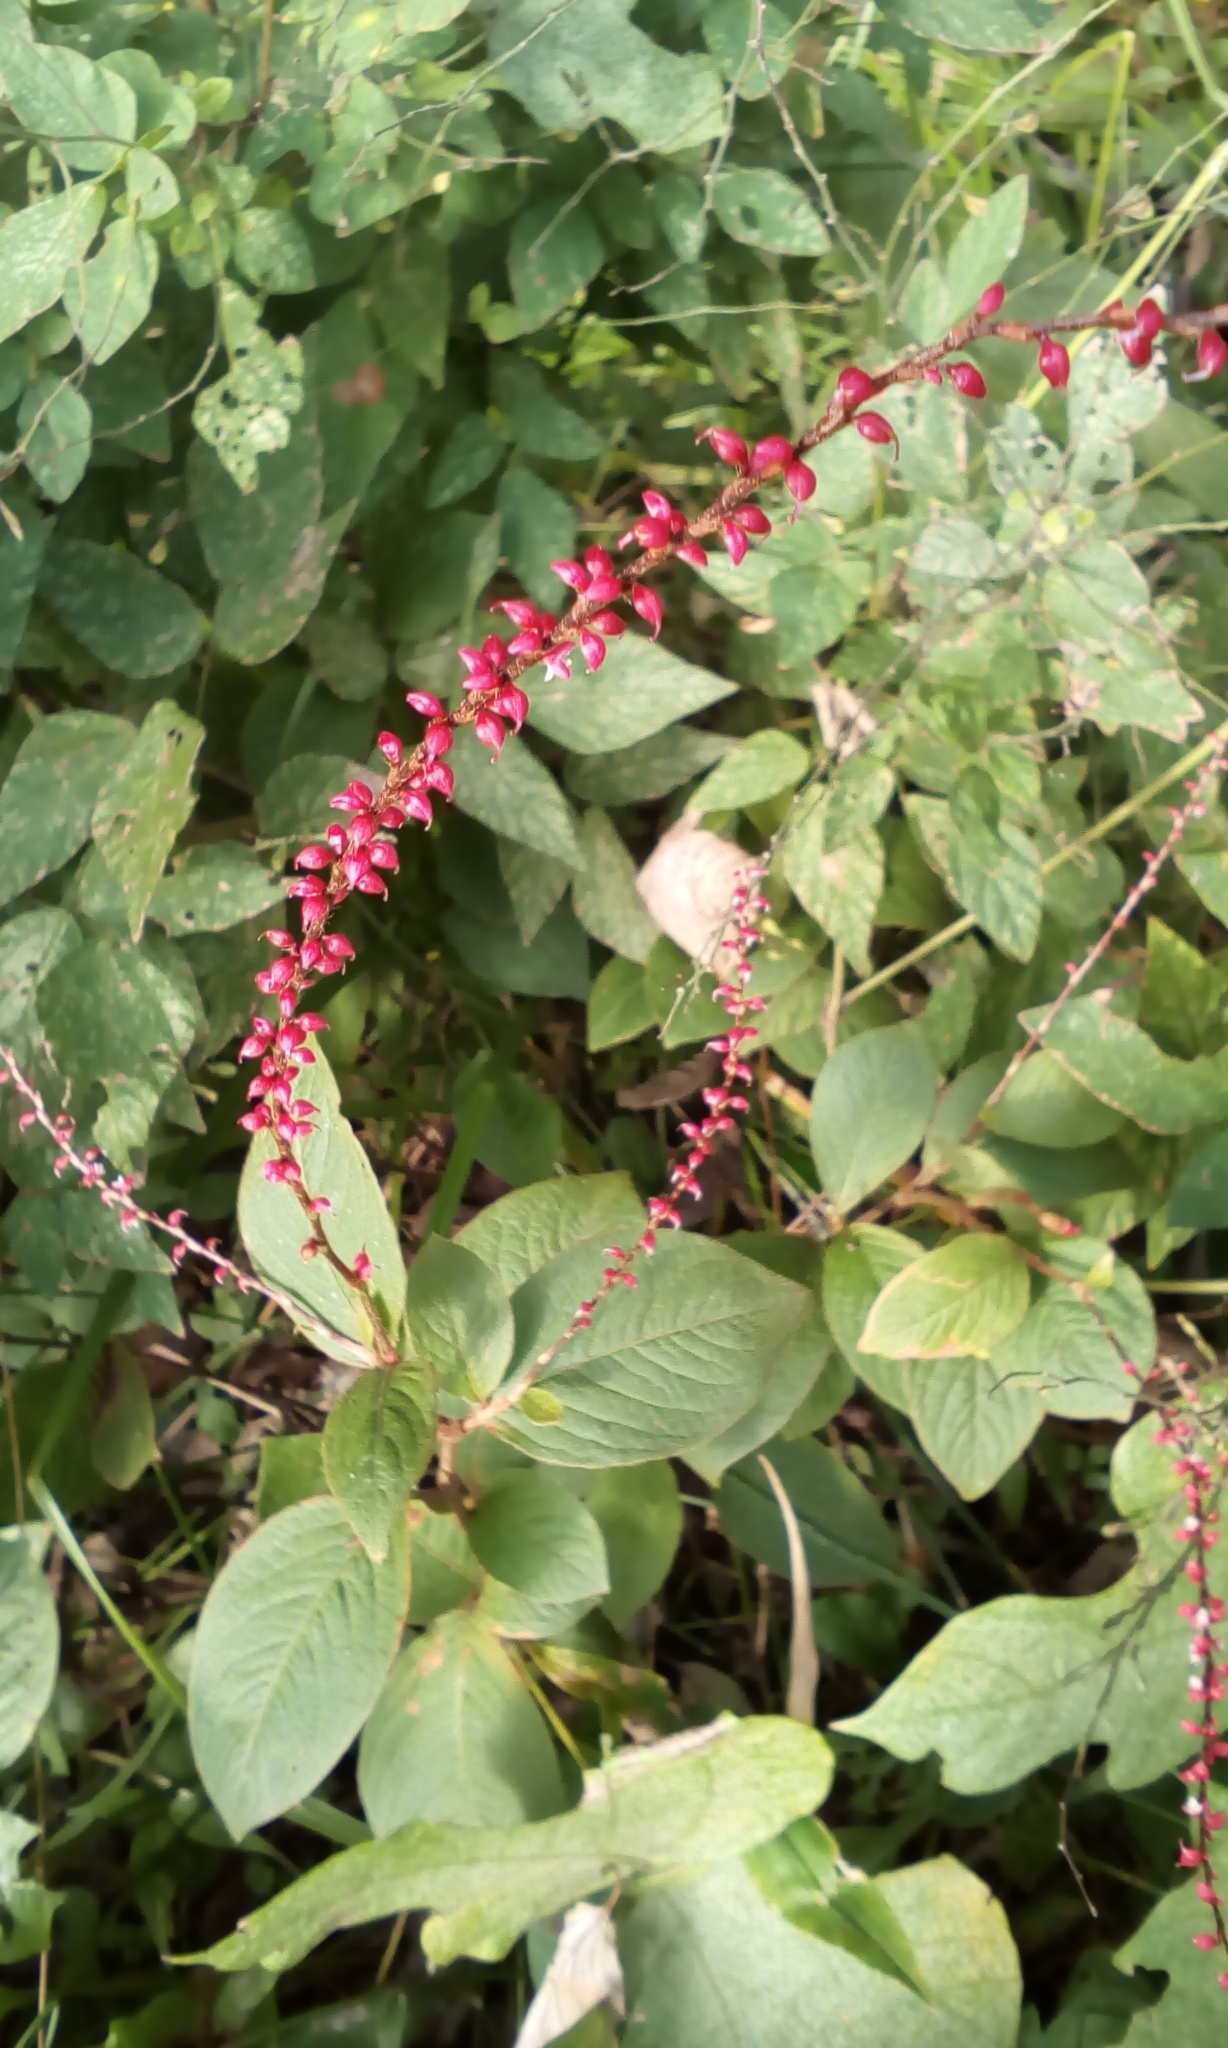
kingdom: Plantae
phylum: Tracheophyta
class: Magnoliopsida
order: Caryophyllales
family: Polygonaceae
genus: Persicaria
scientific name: Persicaria filiformis
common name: Asian jumpseed
